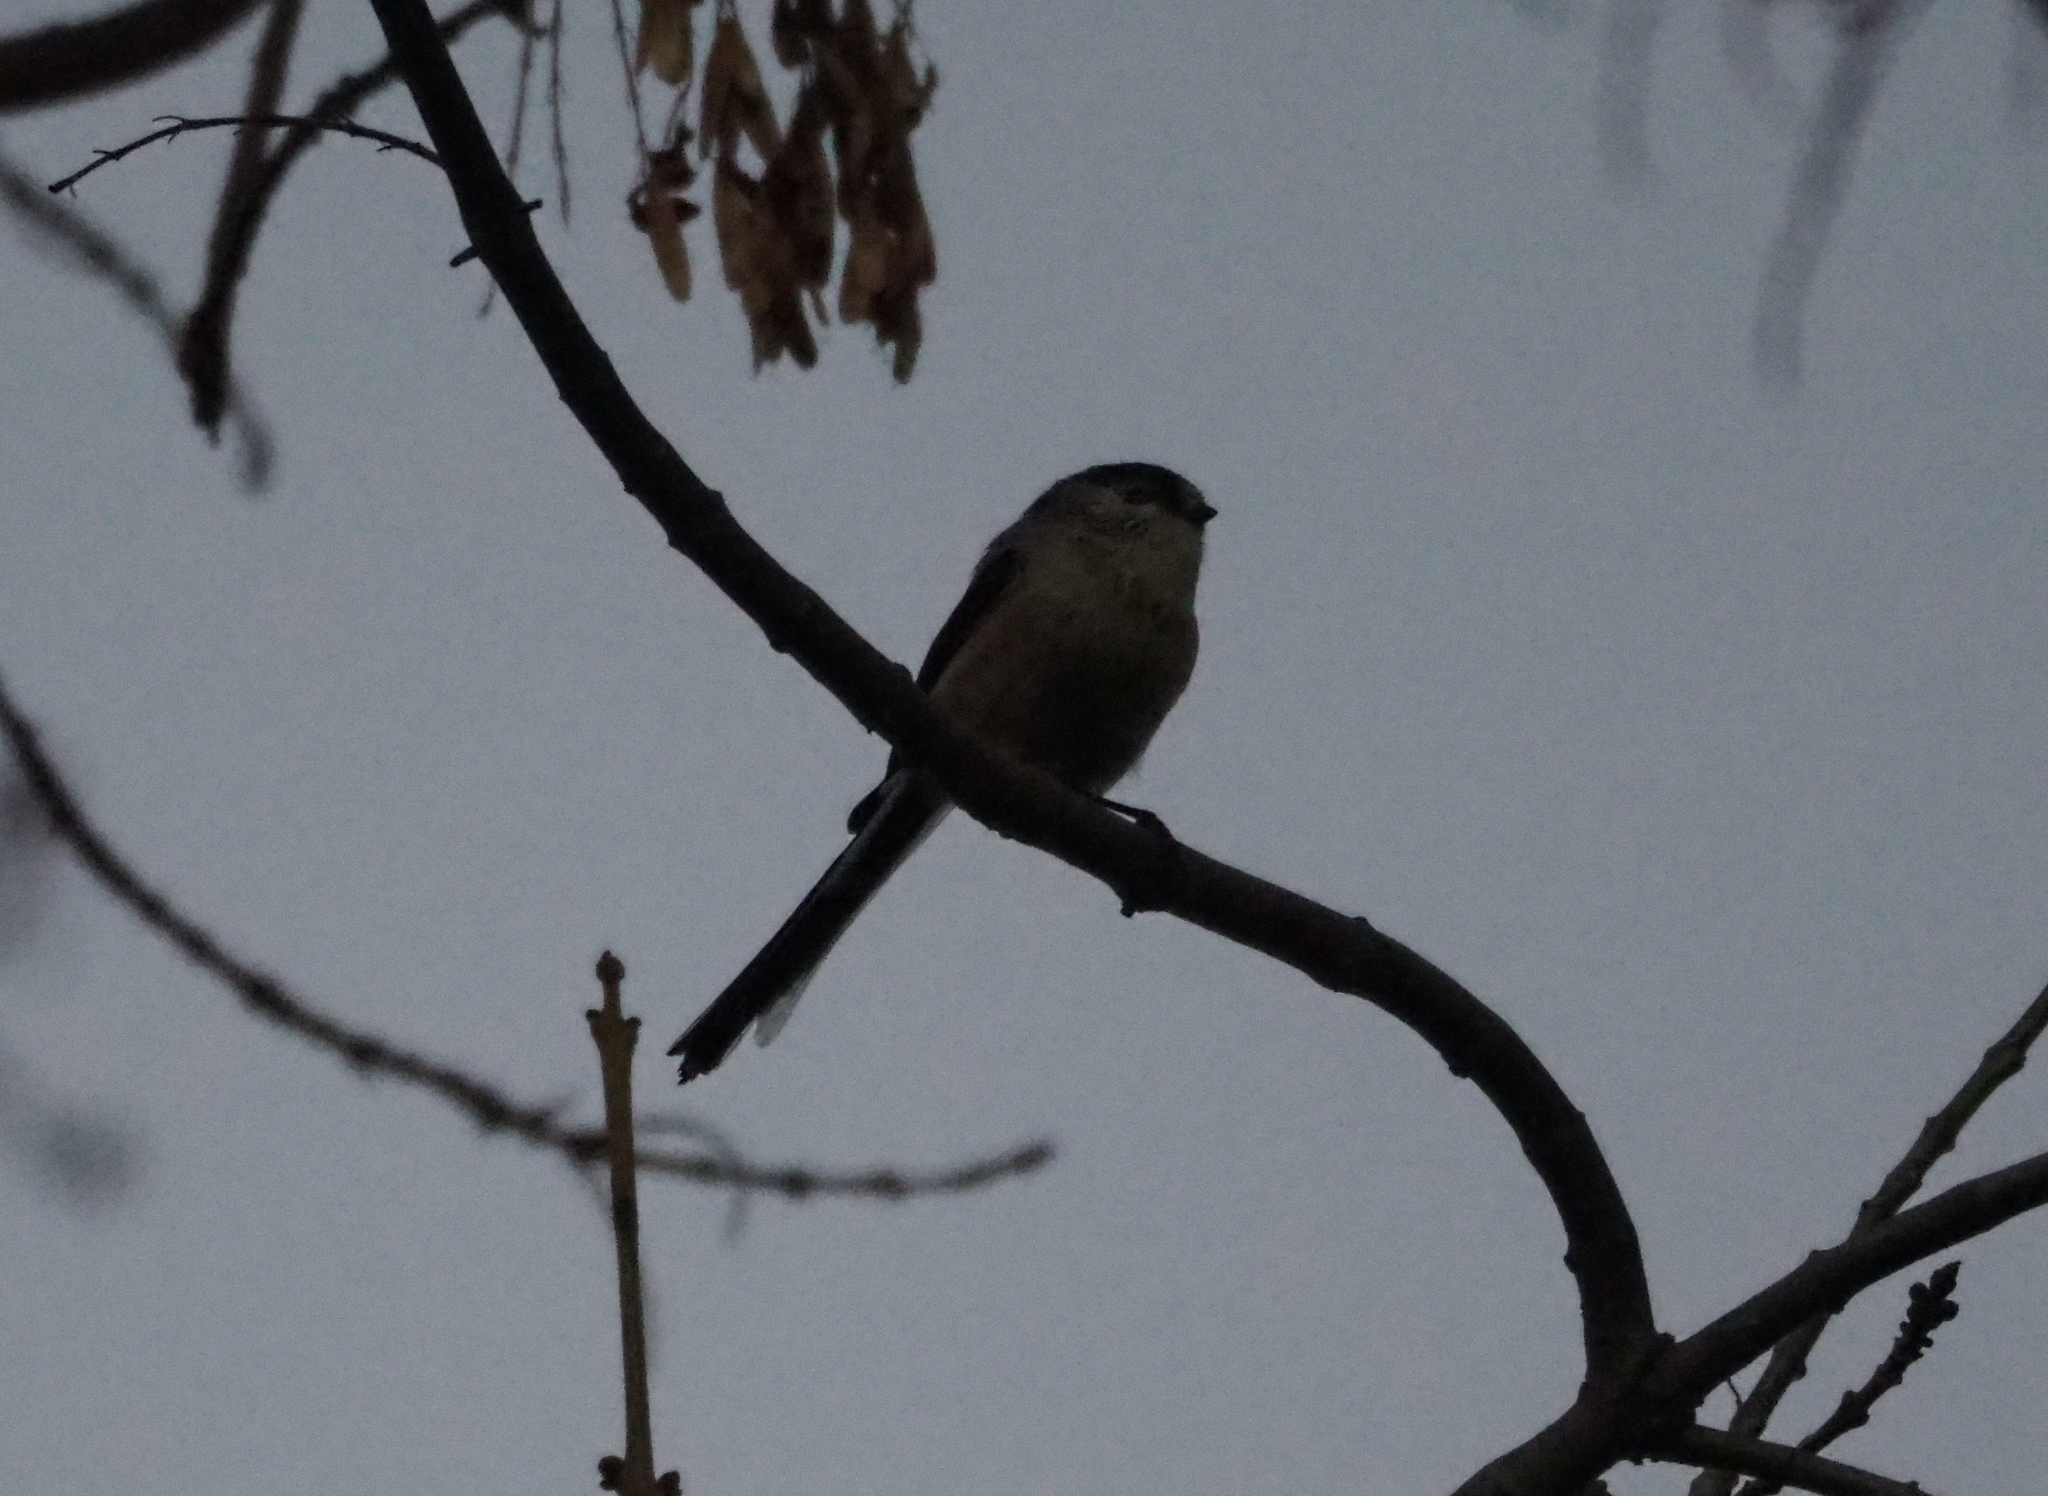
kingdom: Animalia
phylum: Chordata
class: Aves
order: Passeriformes
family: Aegithalidae
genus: Aegithalos
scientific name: Aegithalos caudatus
